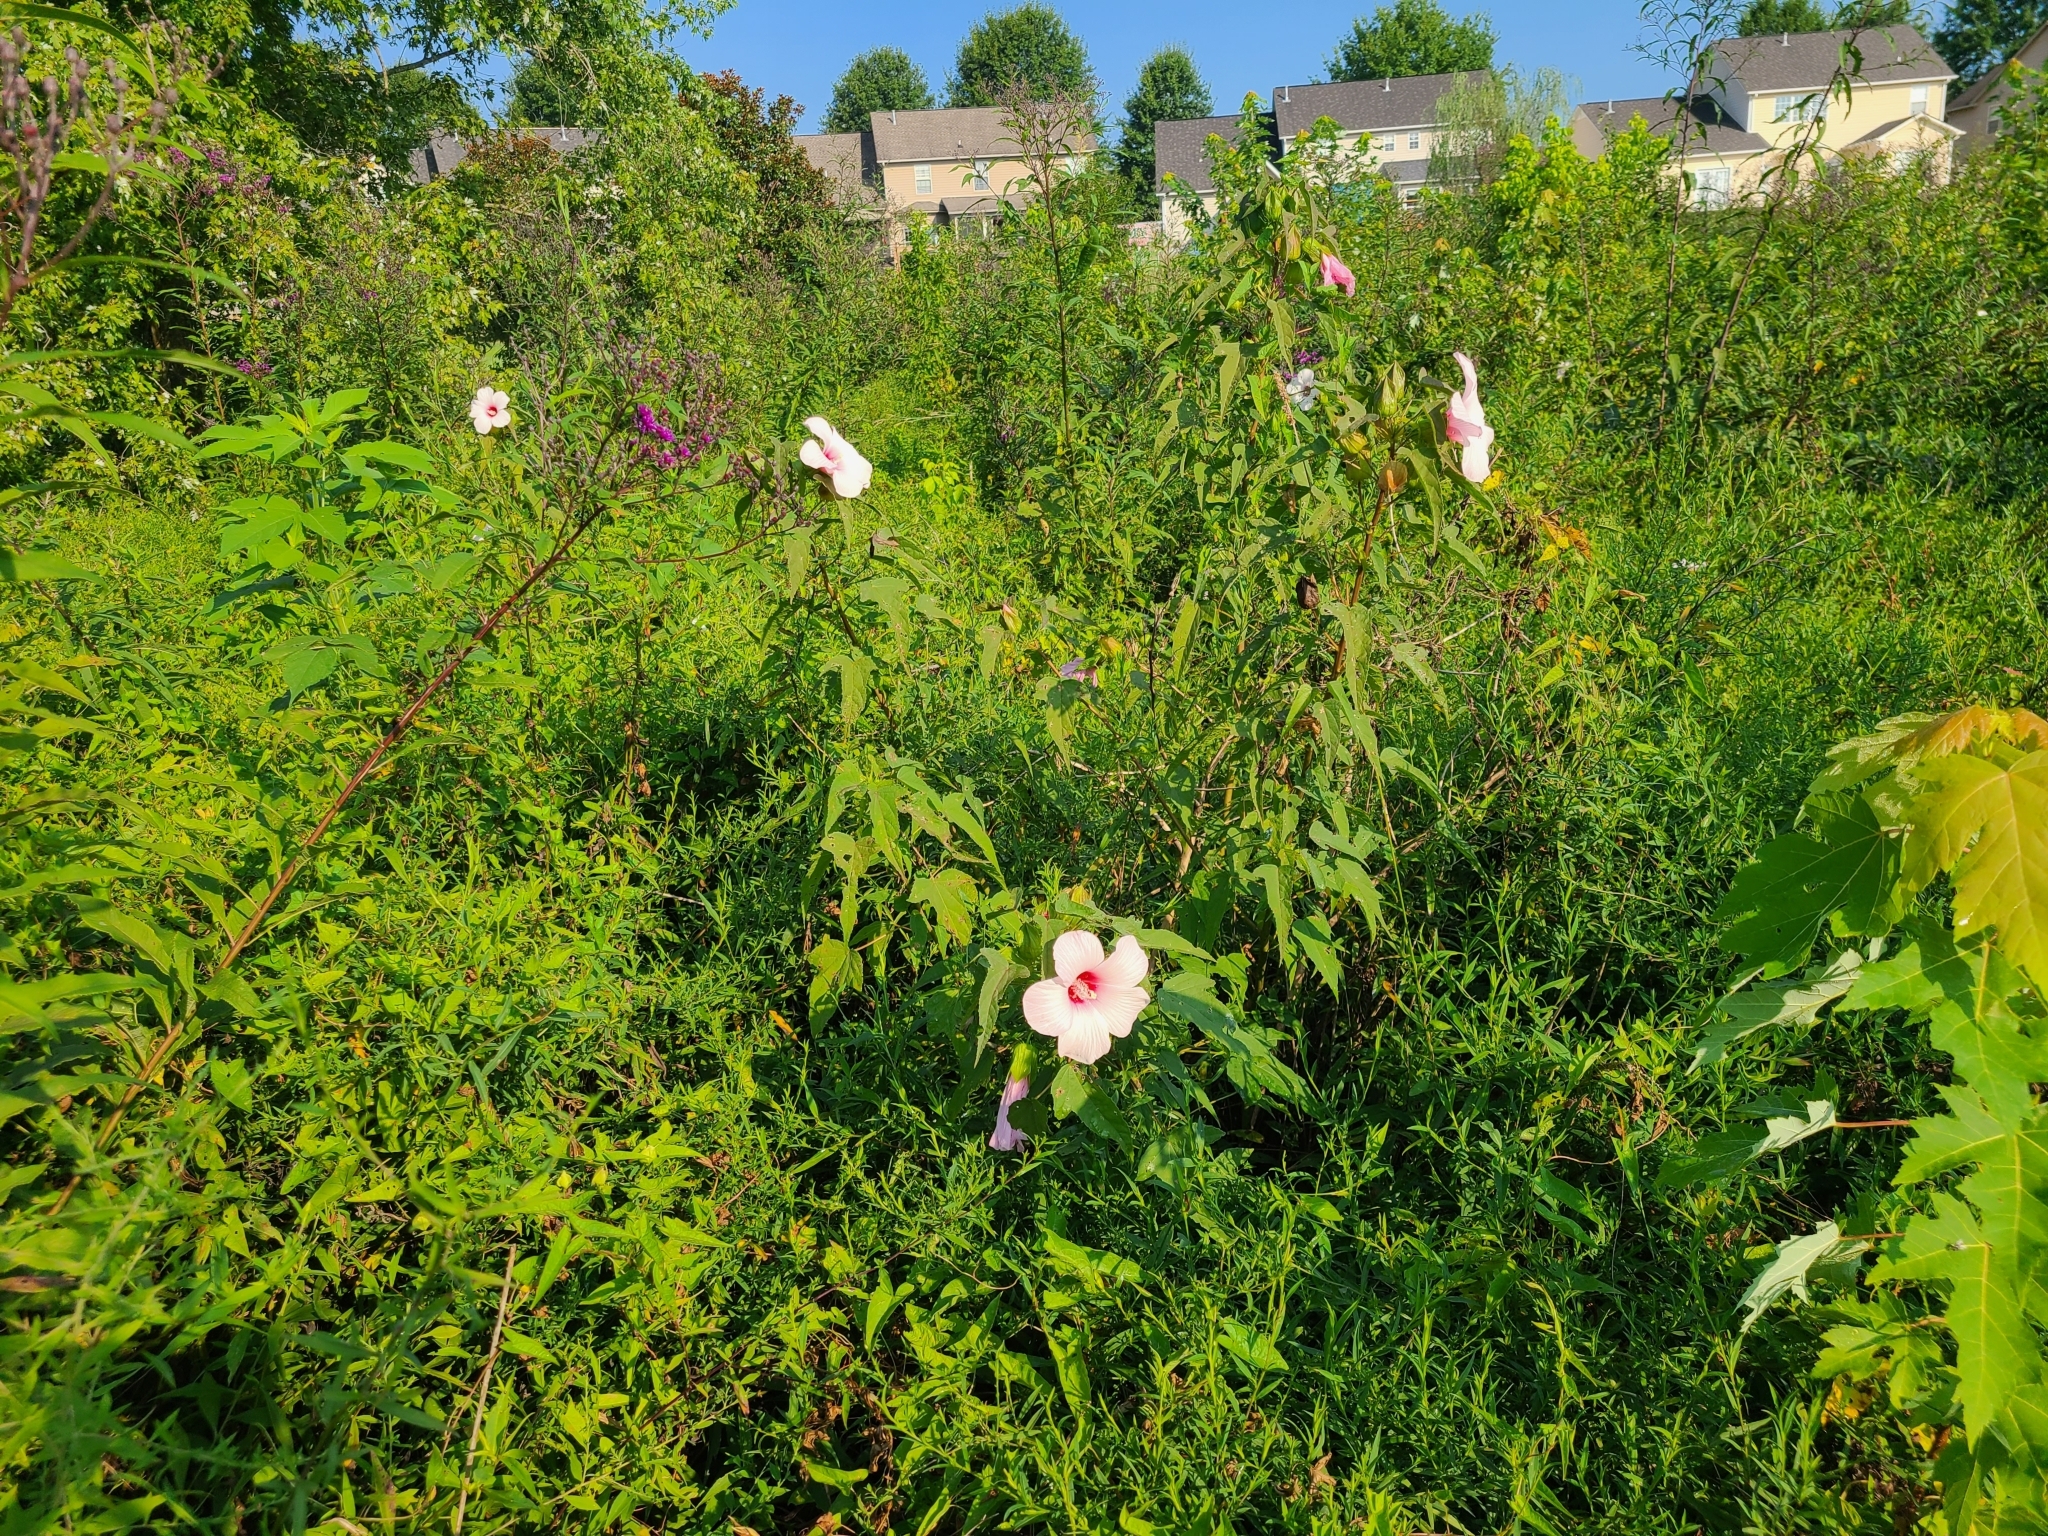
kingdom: Plantae
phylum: Tracheophyta
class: Magnoliopsida
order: Malvales
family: Malvaceae
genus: Hibiscus
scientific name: Hibiscus laevis
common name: Scarlet rose-mallow
